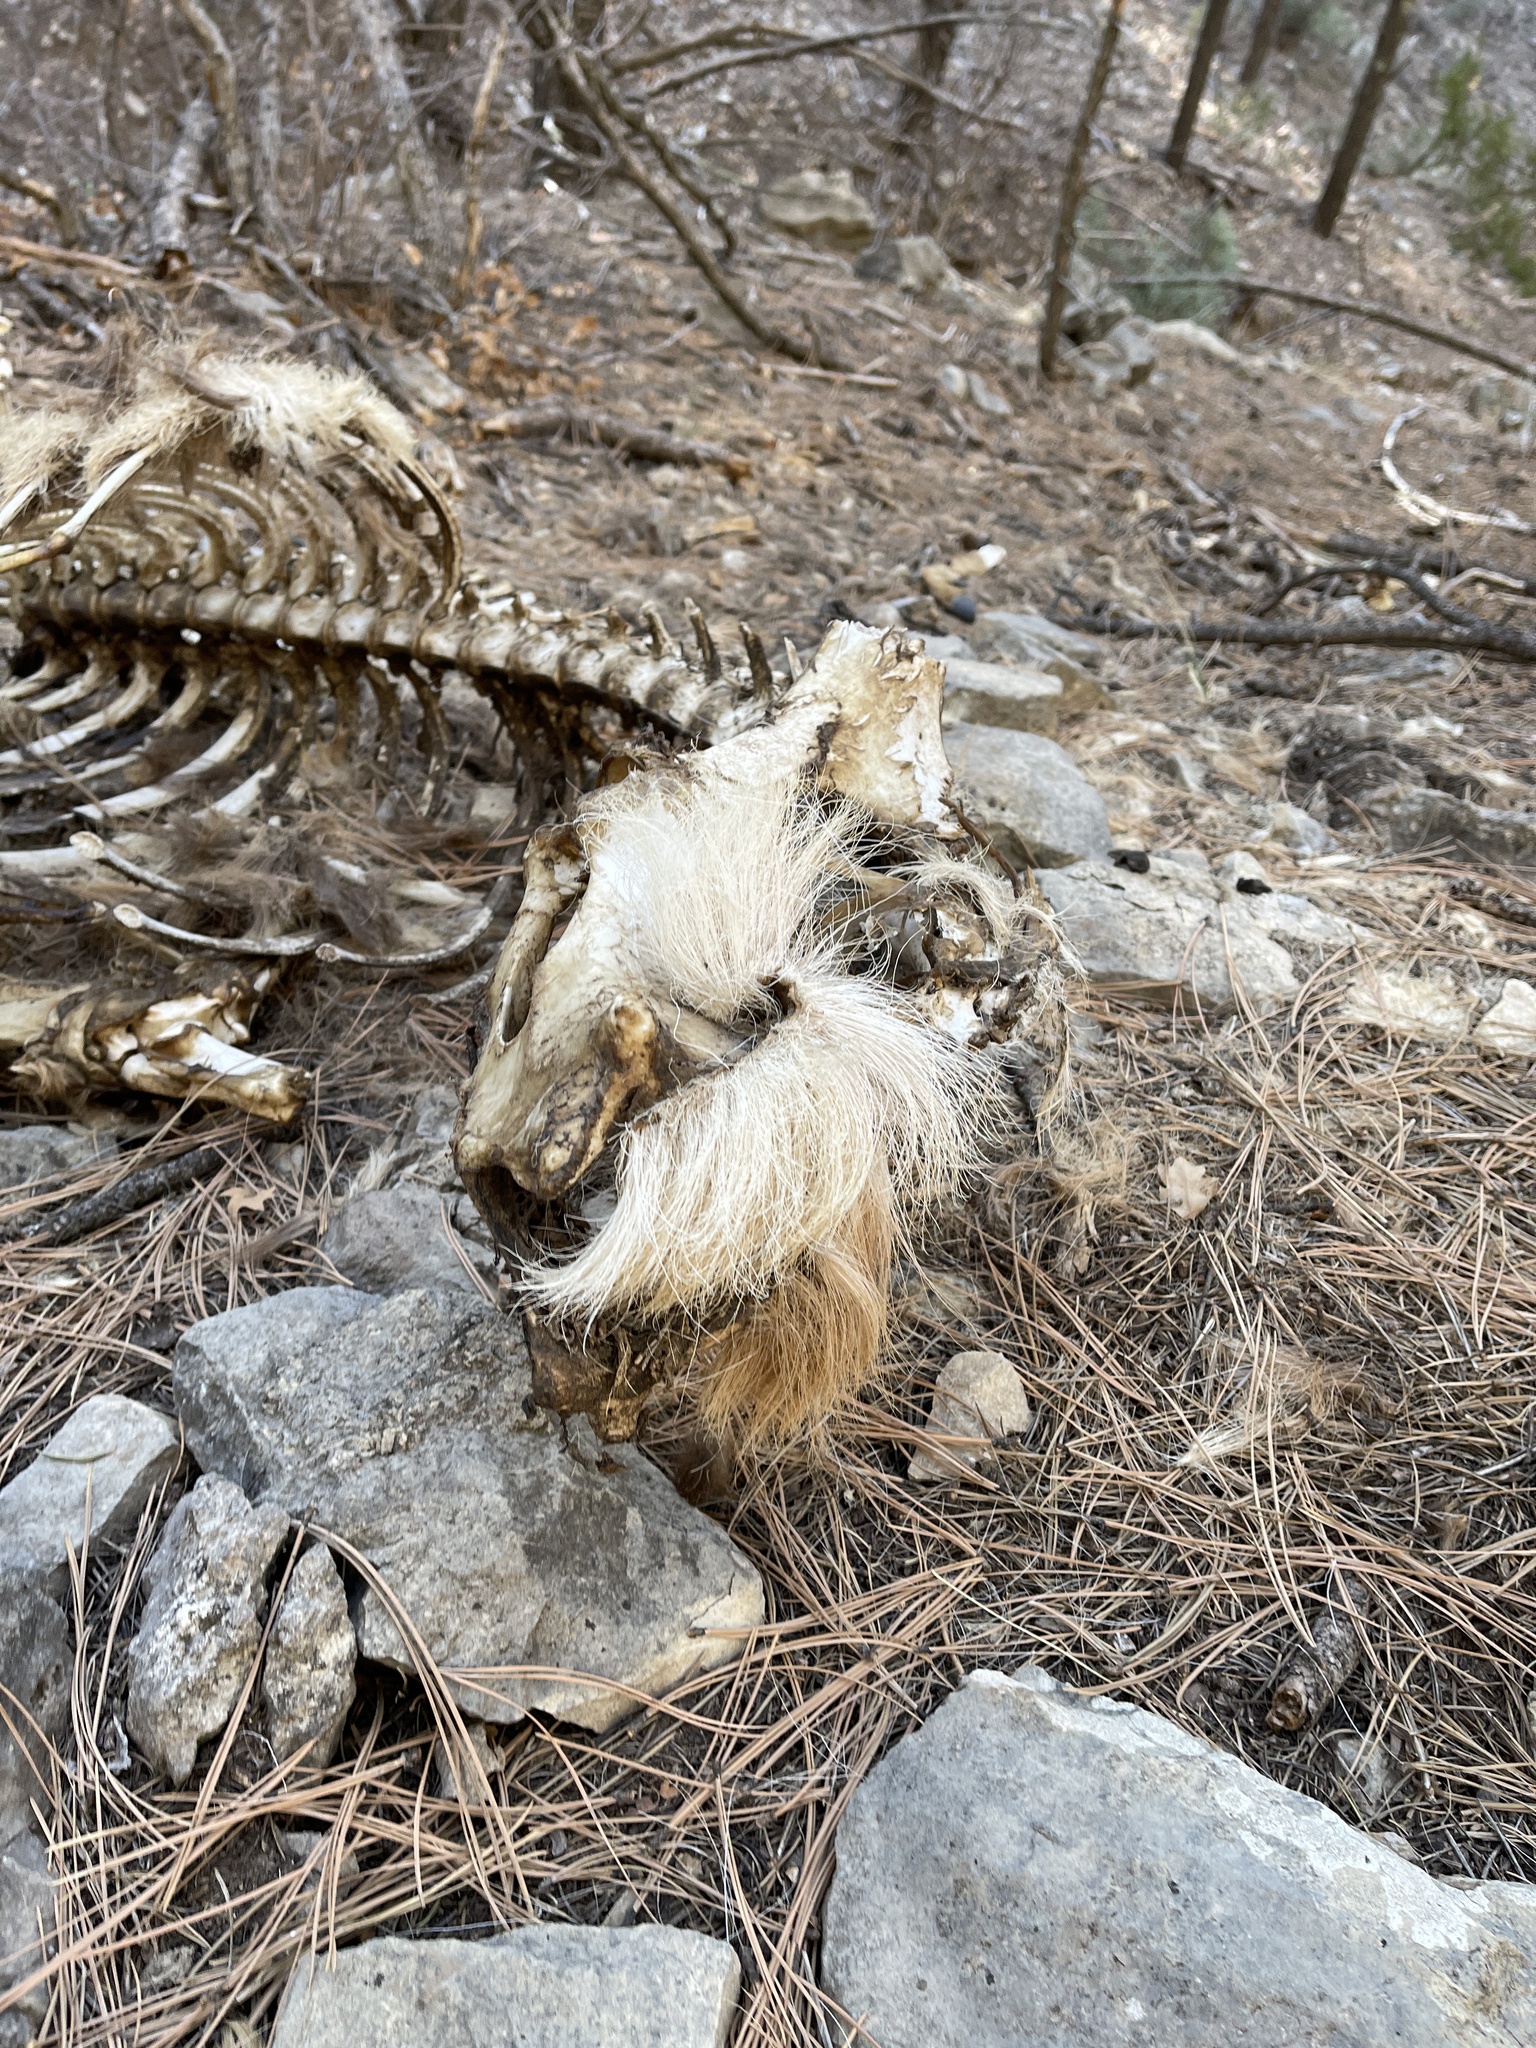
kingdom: Animalia
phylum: Chordata
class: Mammalia
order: Artiodactyla
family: Cervidae
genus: Cervus
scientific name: Cervus elaphus
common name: Red deer
